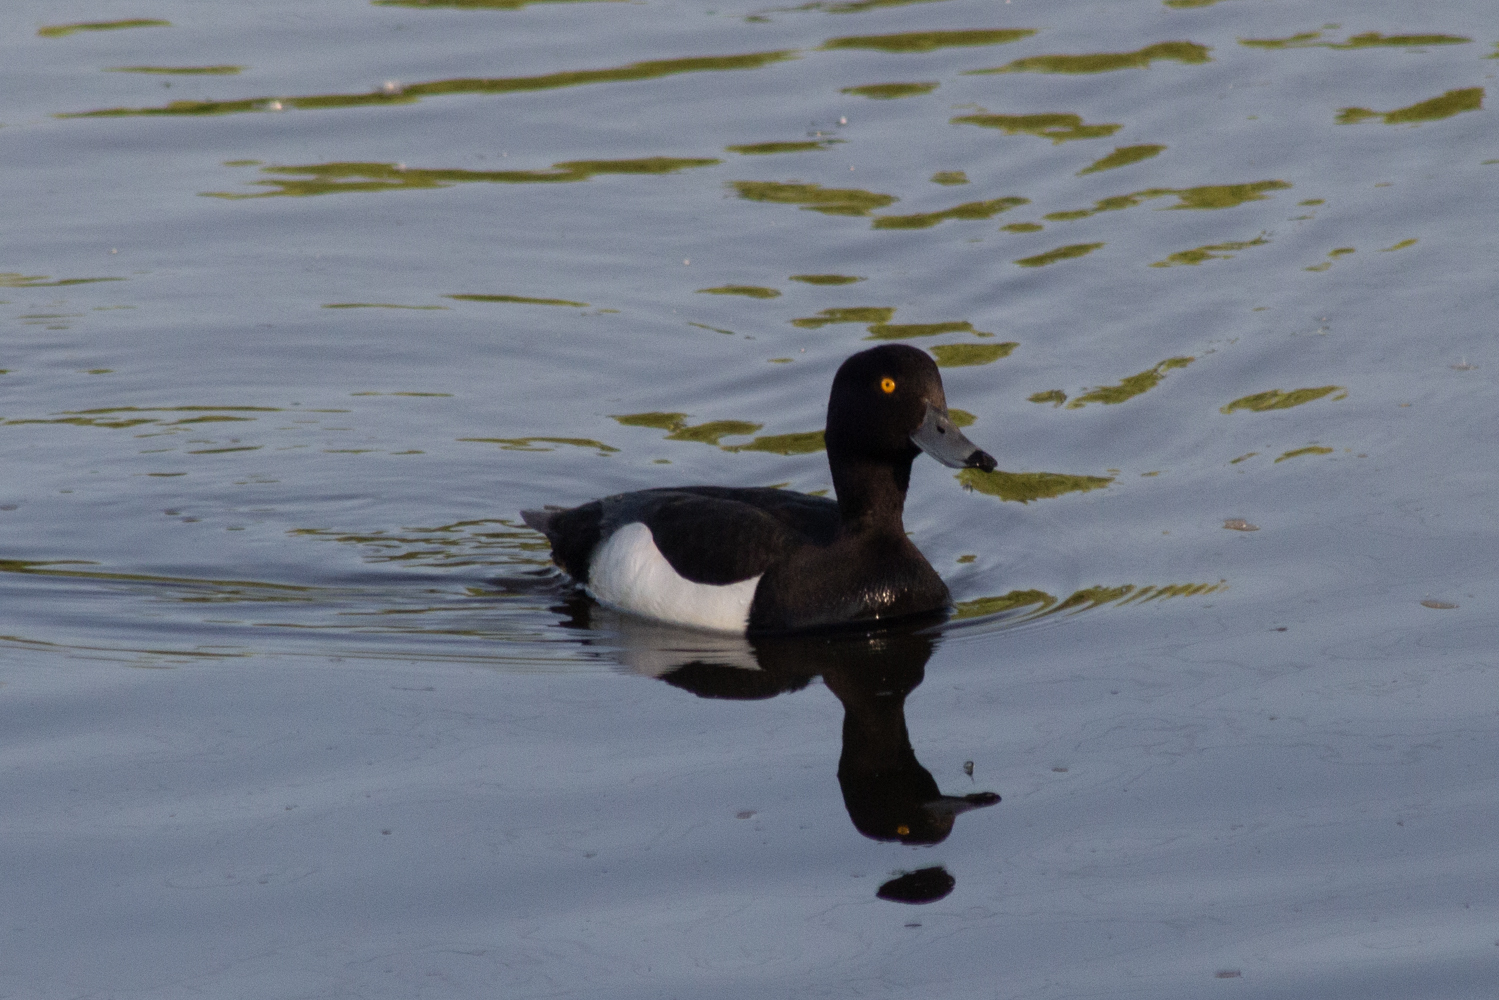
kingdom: Animalia
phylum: Chordata
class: Aves
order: Anseriformes
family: Anatidae
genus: Aythya
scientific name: Aythya fuligula
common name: Tufted duck
